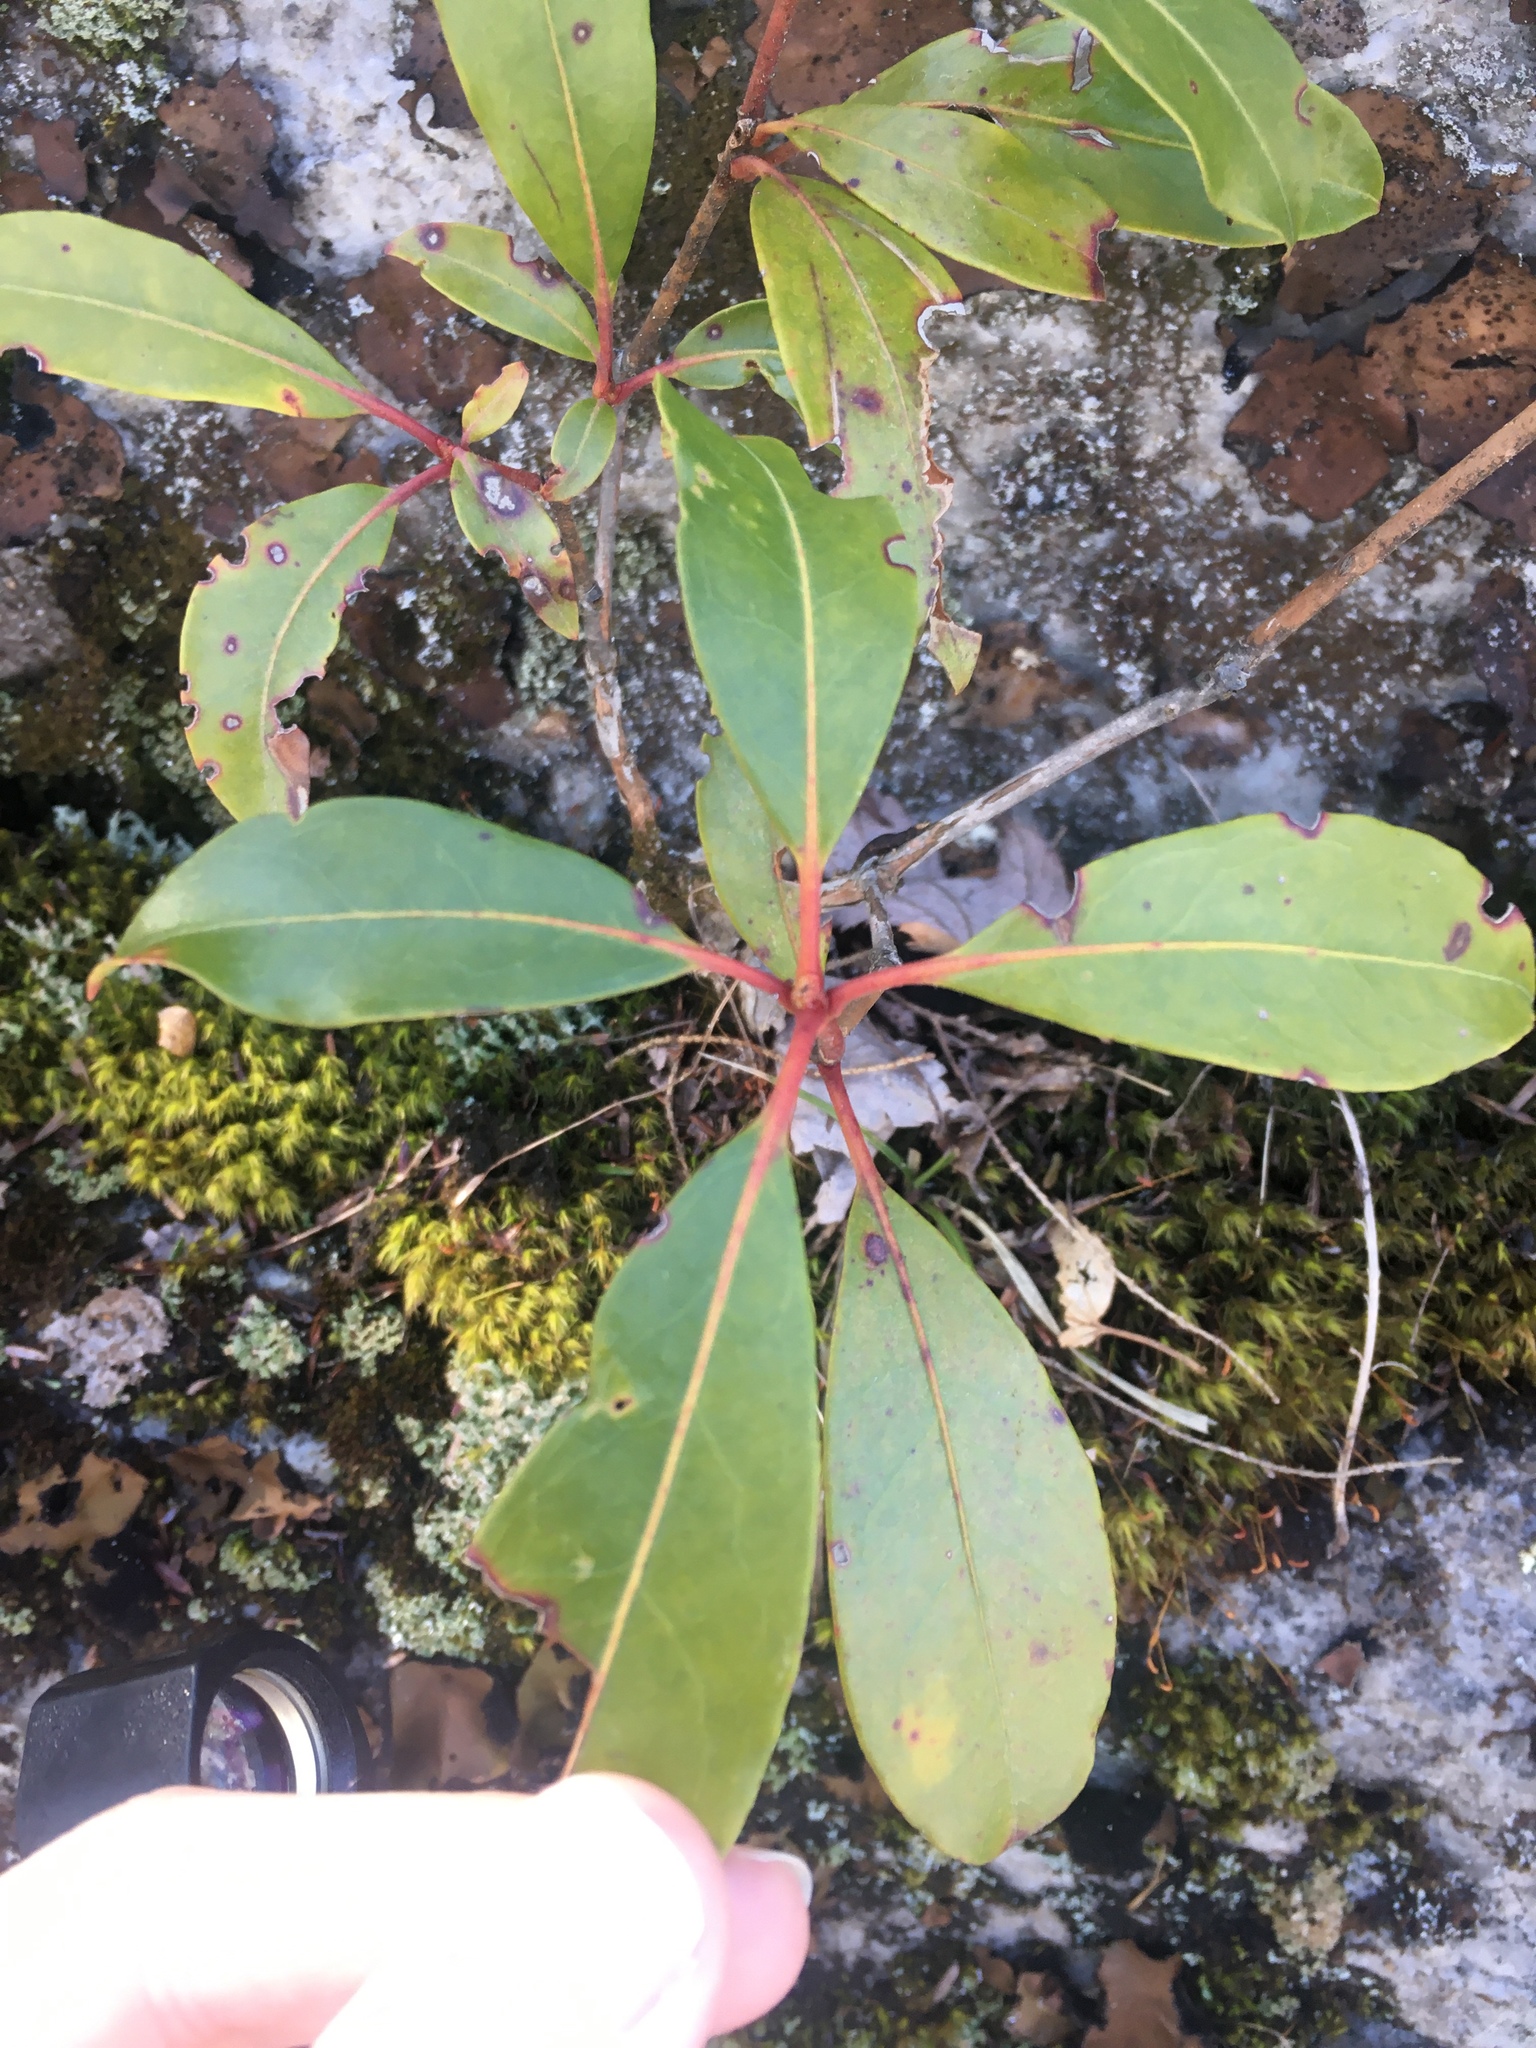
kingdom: Plantae
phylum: Tracheophyta
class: Magnoliopsida
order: Ericales
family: Ericaceae
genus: Kalmia
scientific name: Kalmia latifolia
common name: Mountain-laurel
